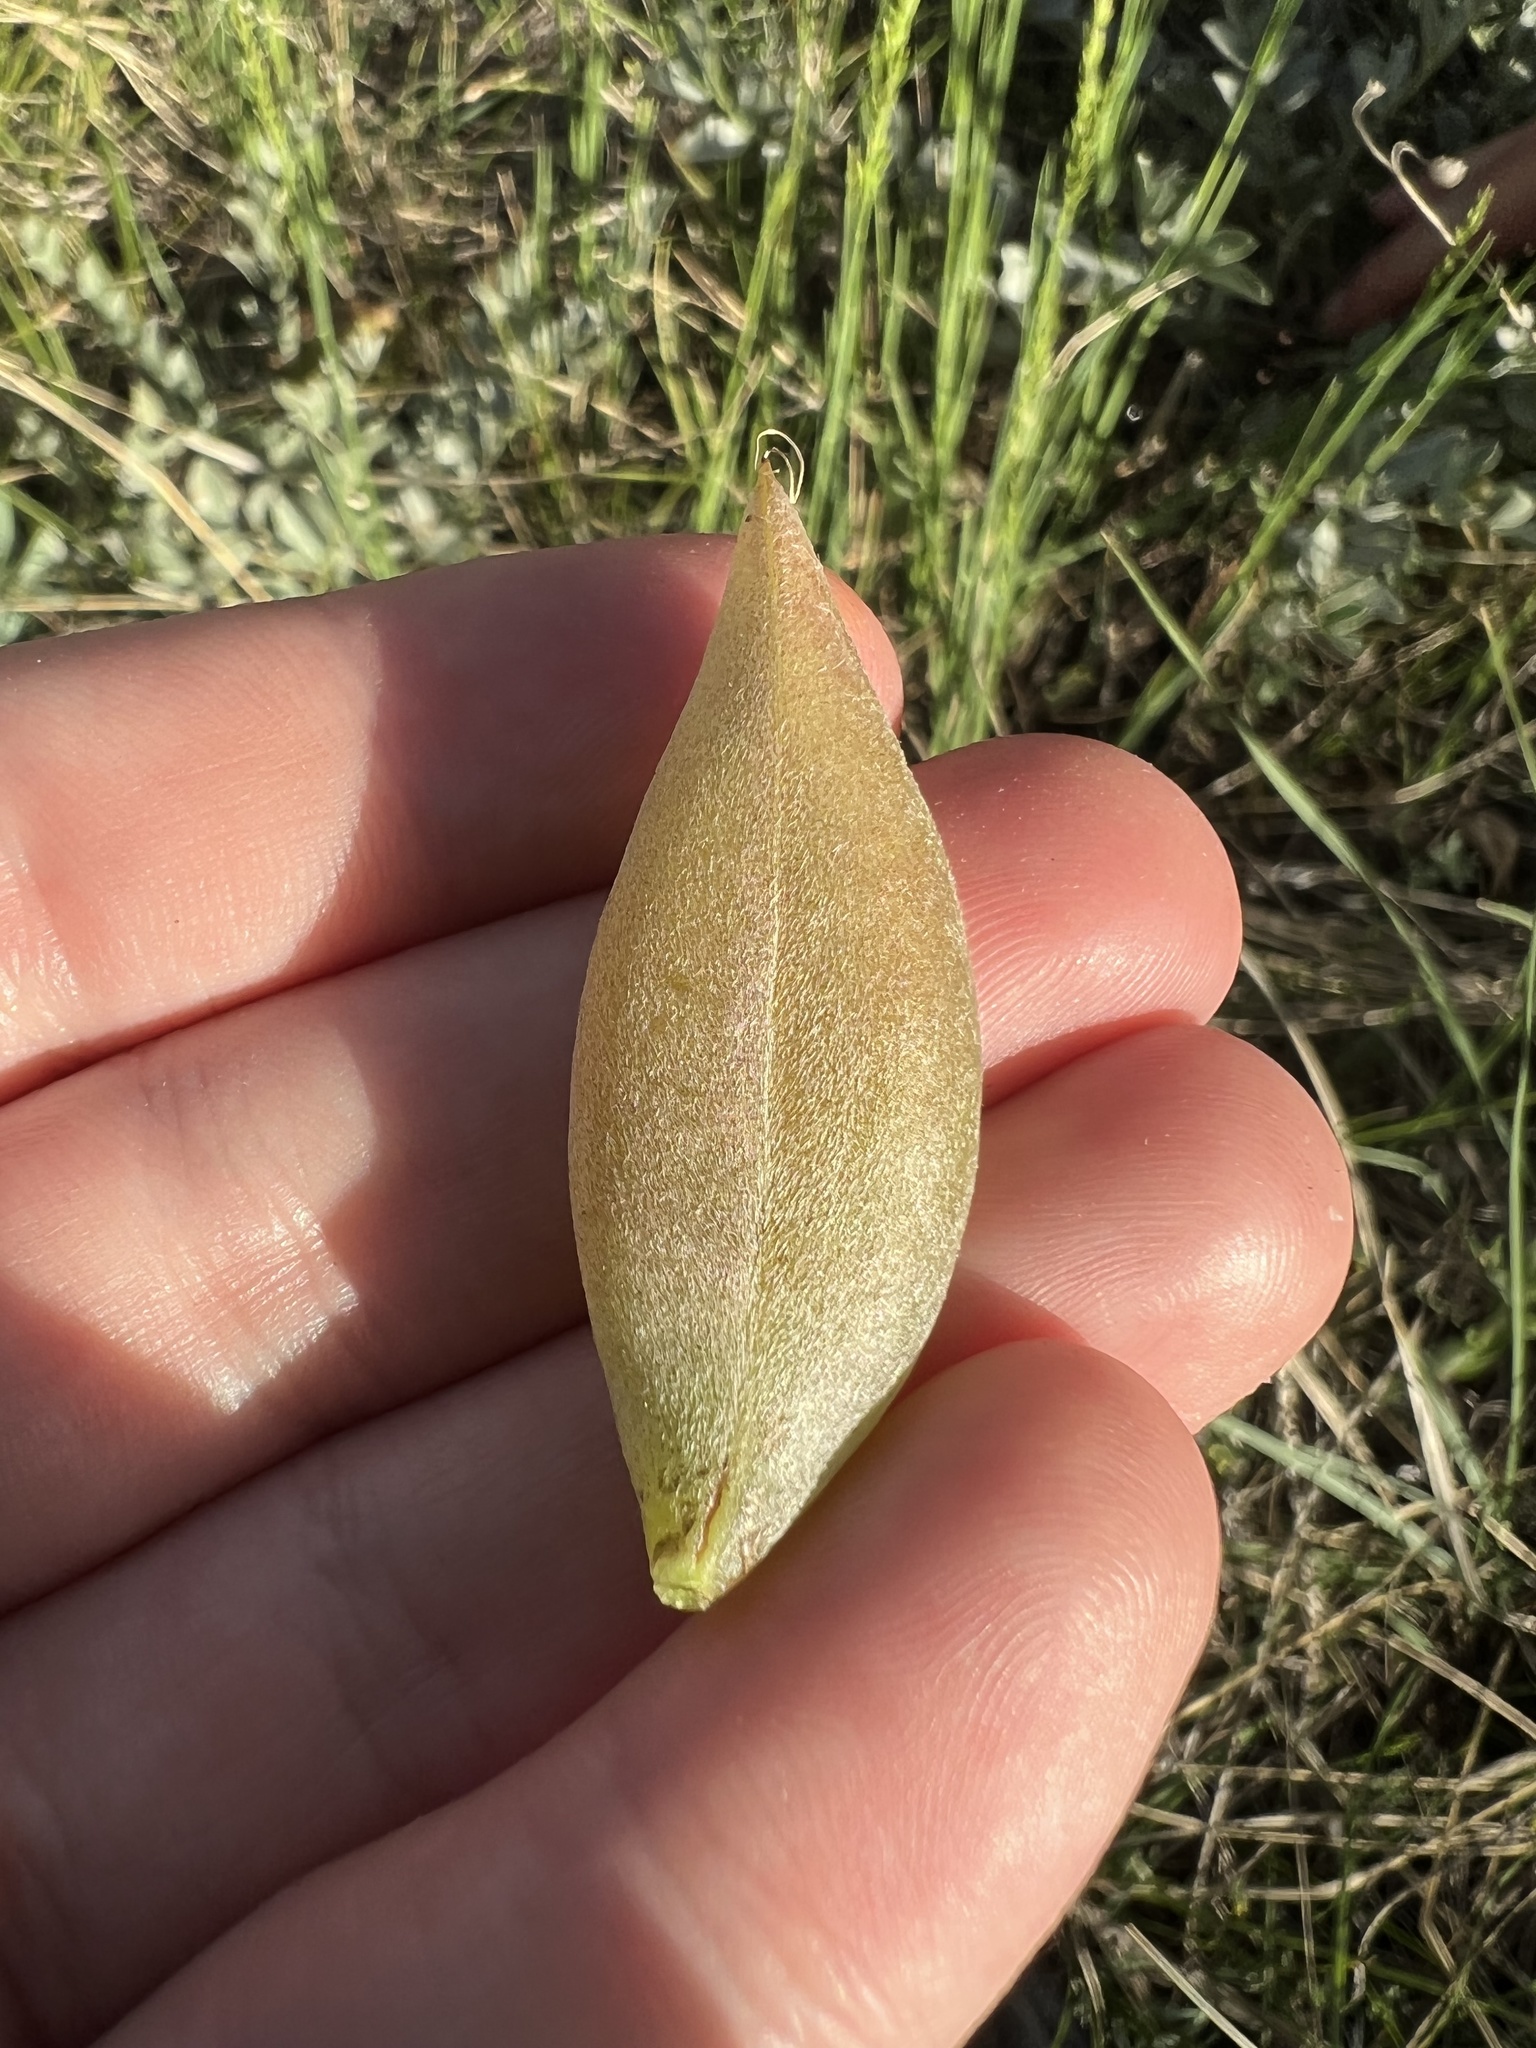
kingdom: Plantae
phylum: Tracheophyta
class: Magnoliopsida
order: Fabales
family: Fabaceae
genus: Astragalus
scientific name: Astragalus shortianus
